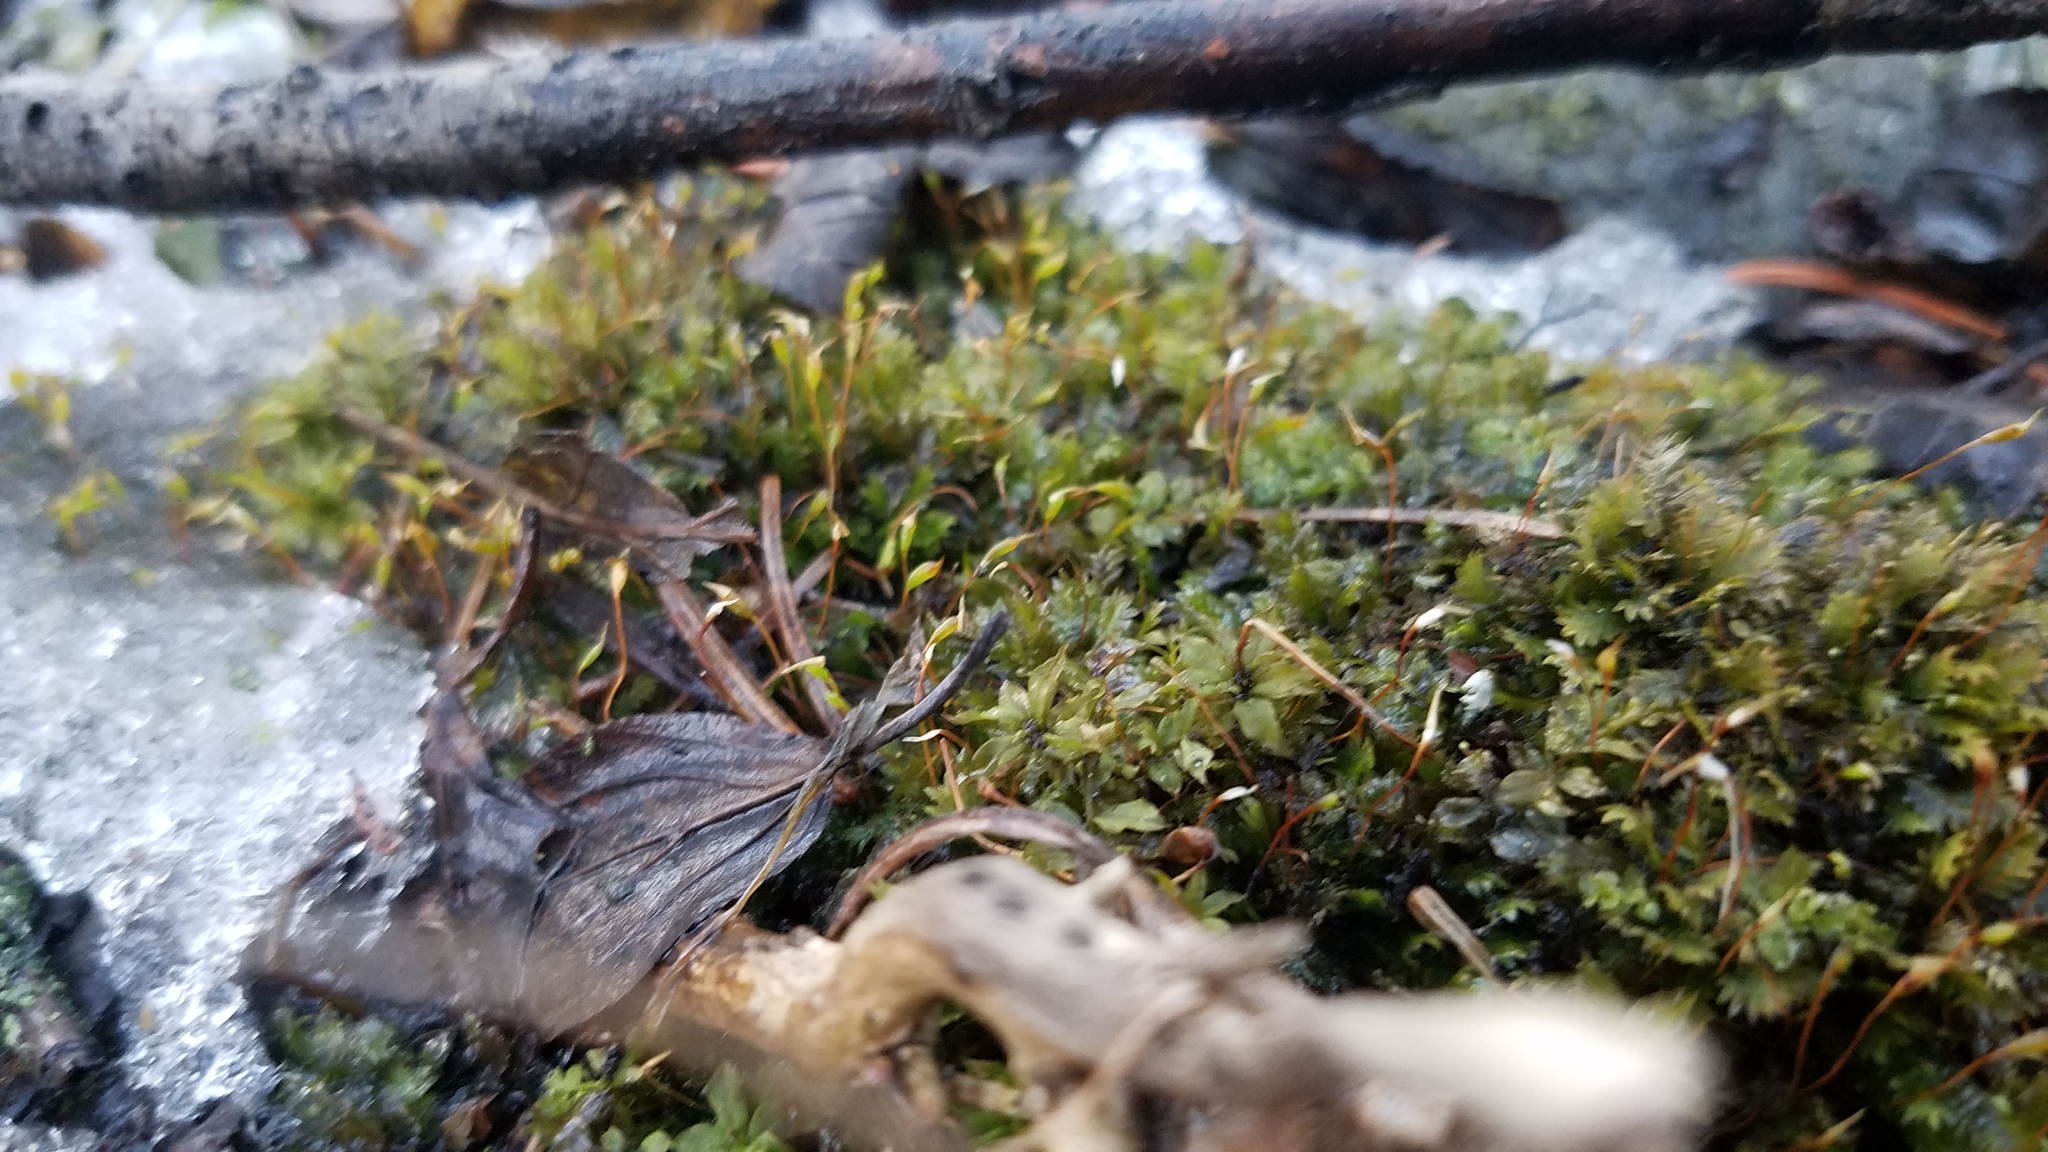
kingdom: Plantae
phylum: Bryophyta
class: Bryopsida
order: Bryales
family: Mniaceae
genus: Plagiomnium
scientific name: Plagiomnium cuspidatum
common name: Woodsy leafy moss
